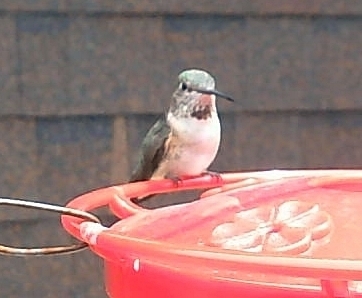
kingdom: Animalia
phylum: Chordata
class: Aves
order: Apodiformes
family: Trochilidae
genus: Selasphorus
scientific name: Selasphorus platycercus
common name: Broad-tailed hummingbird
